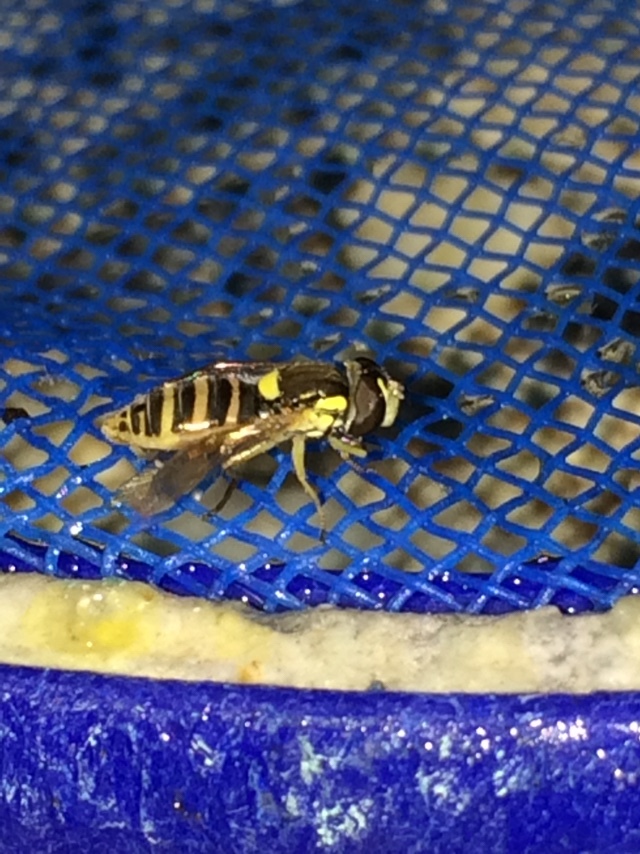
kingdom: Animalia
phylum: Arthropoda
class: Insecta
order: Diptera
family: Syrphidae
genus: Sphaerophoria
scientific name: Sphaerophoria sulphuripes
